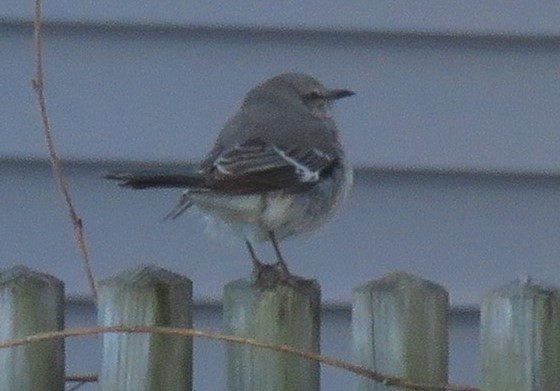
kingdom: Animalia
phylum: Chordata
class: Aves
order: Passeriformes
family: Mimidae
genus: Mimus
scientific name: Mimus polyglottos
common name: Northern mockingbird
